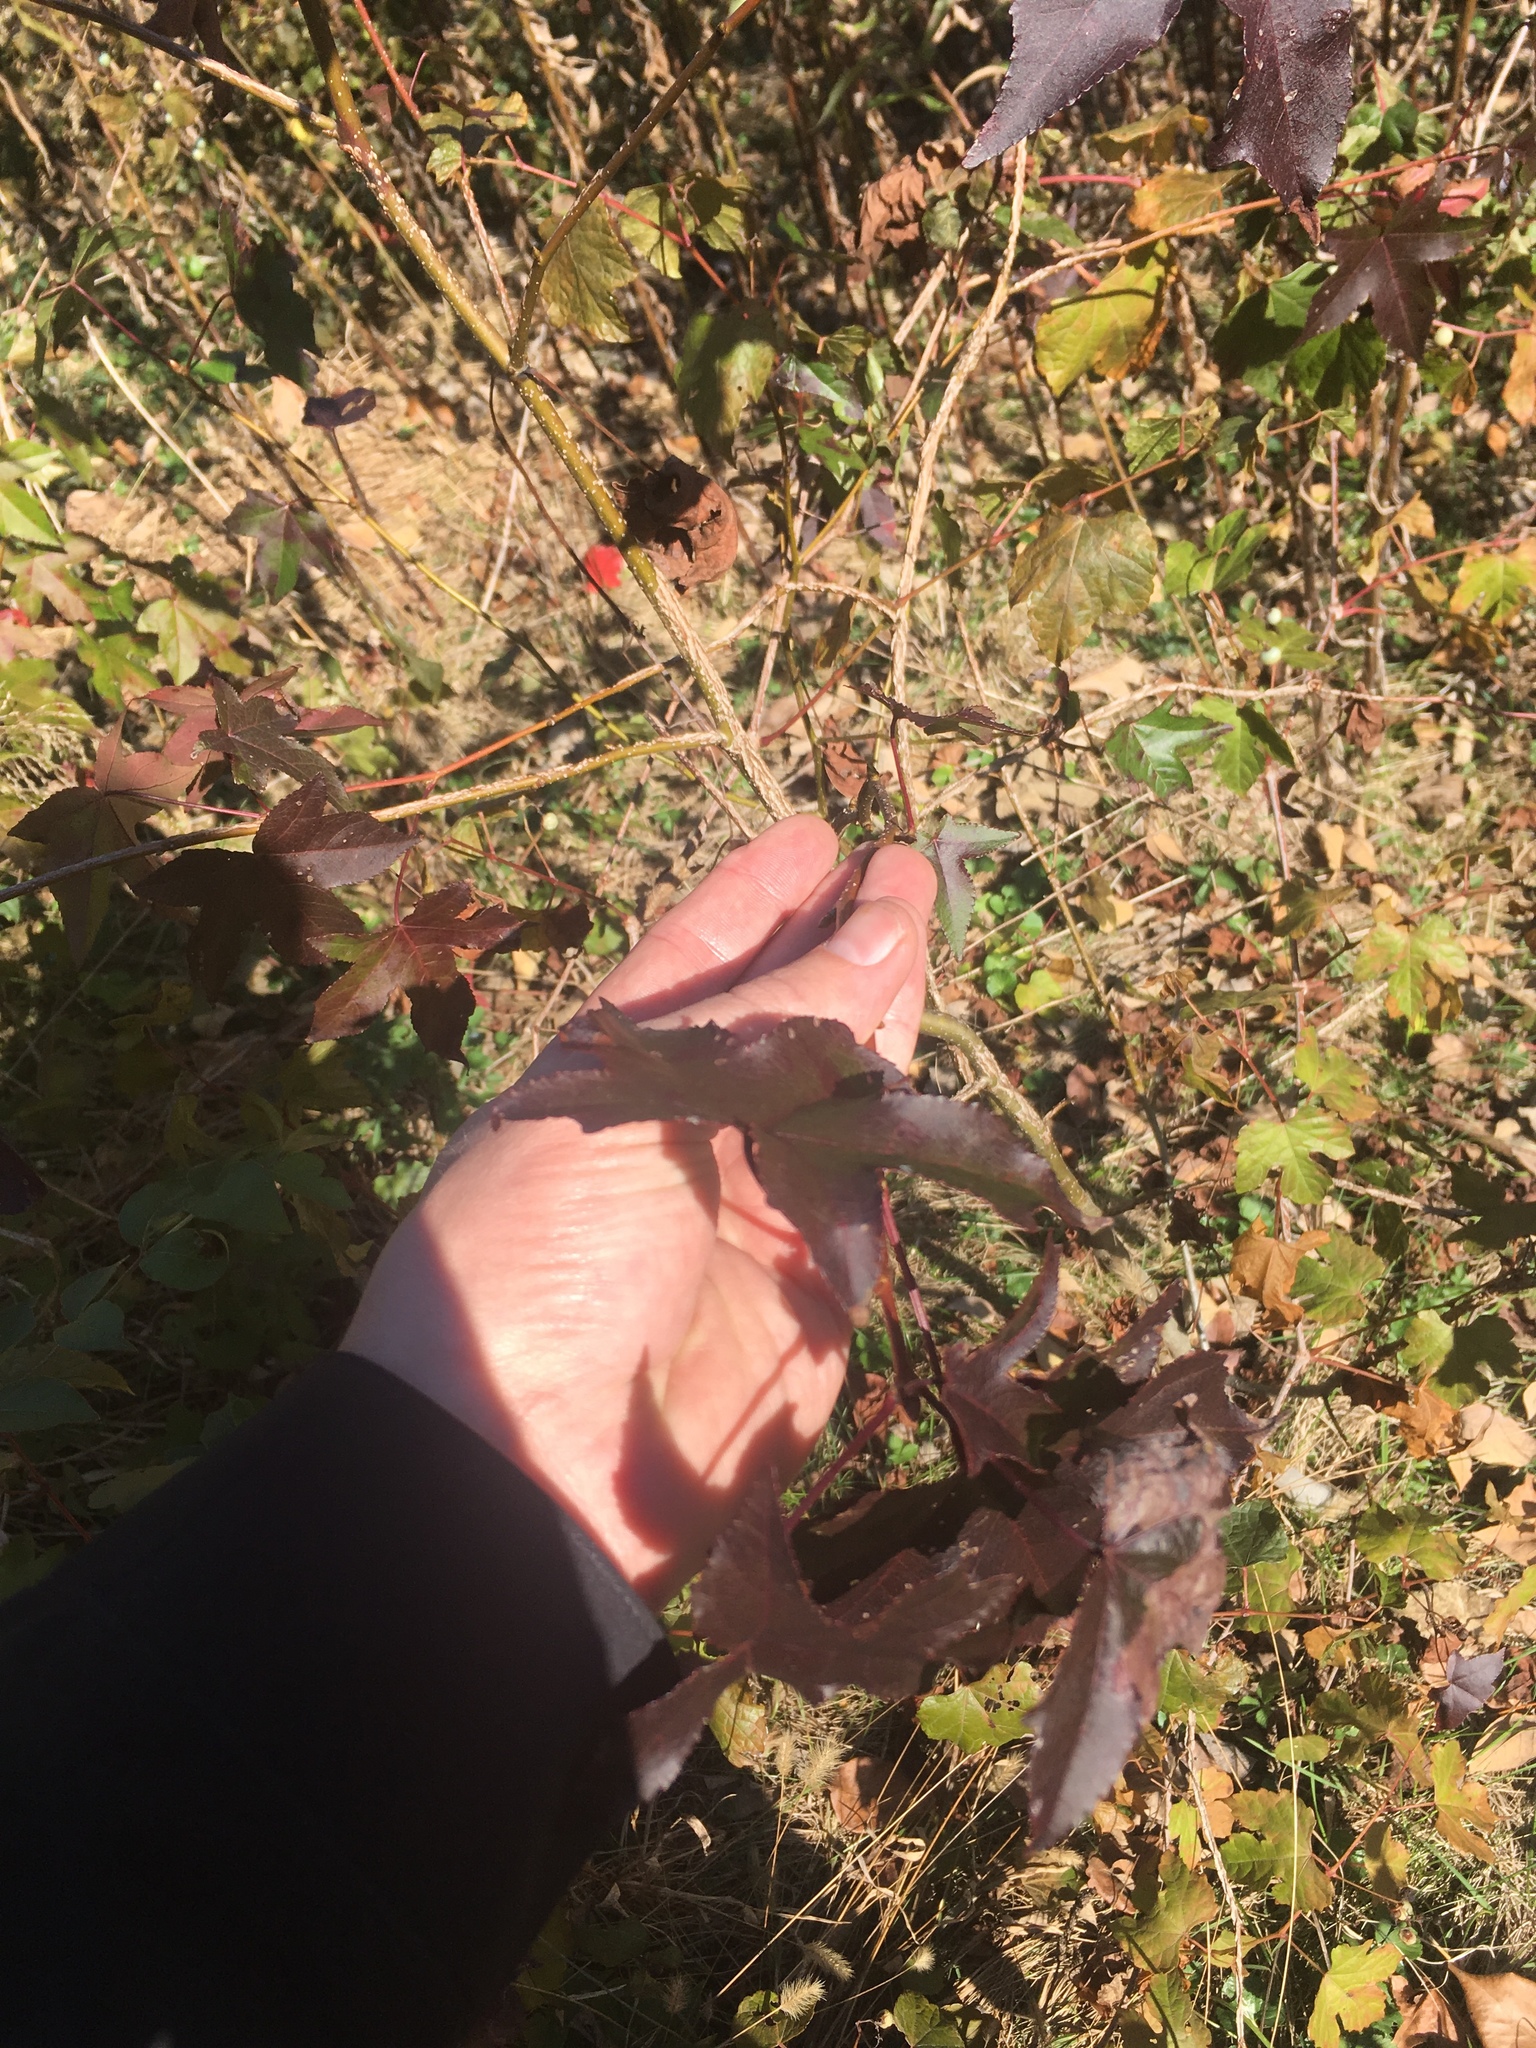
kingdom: Plantae
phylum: Tracheophyta
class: Magnoliopsida
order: Saxifragales
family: Altingiaceae
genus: Liquidambar
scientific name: Liquidambar styraciflua
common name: Sweet gum
